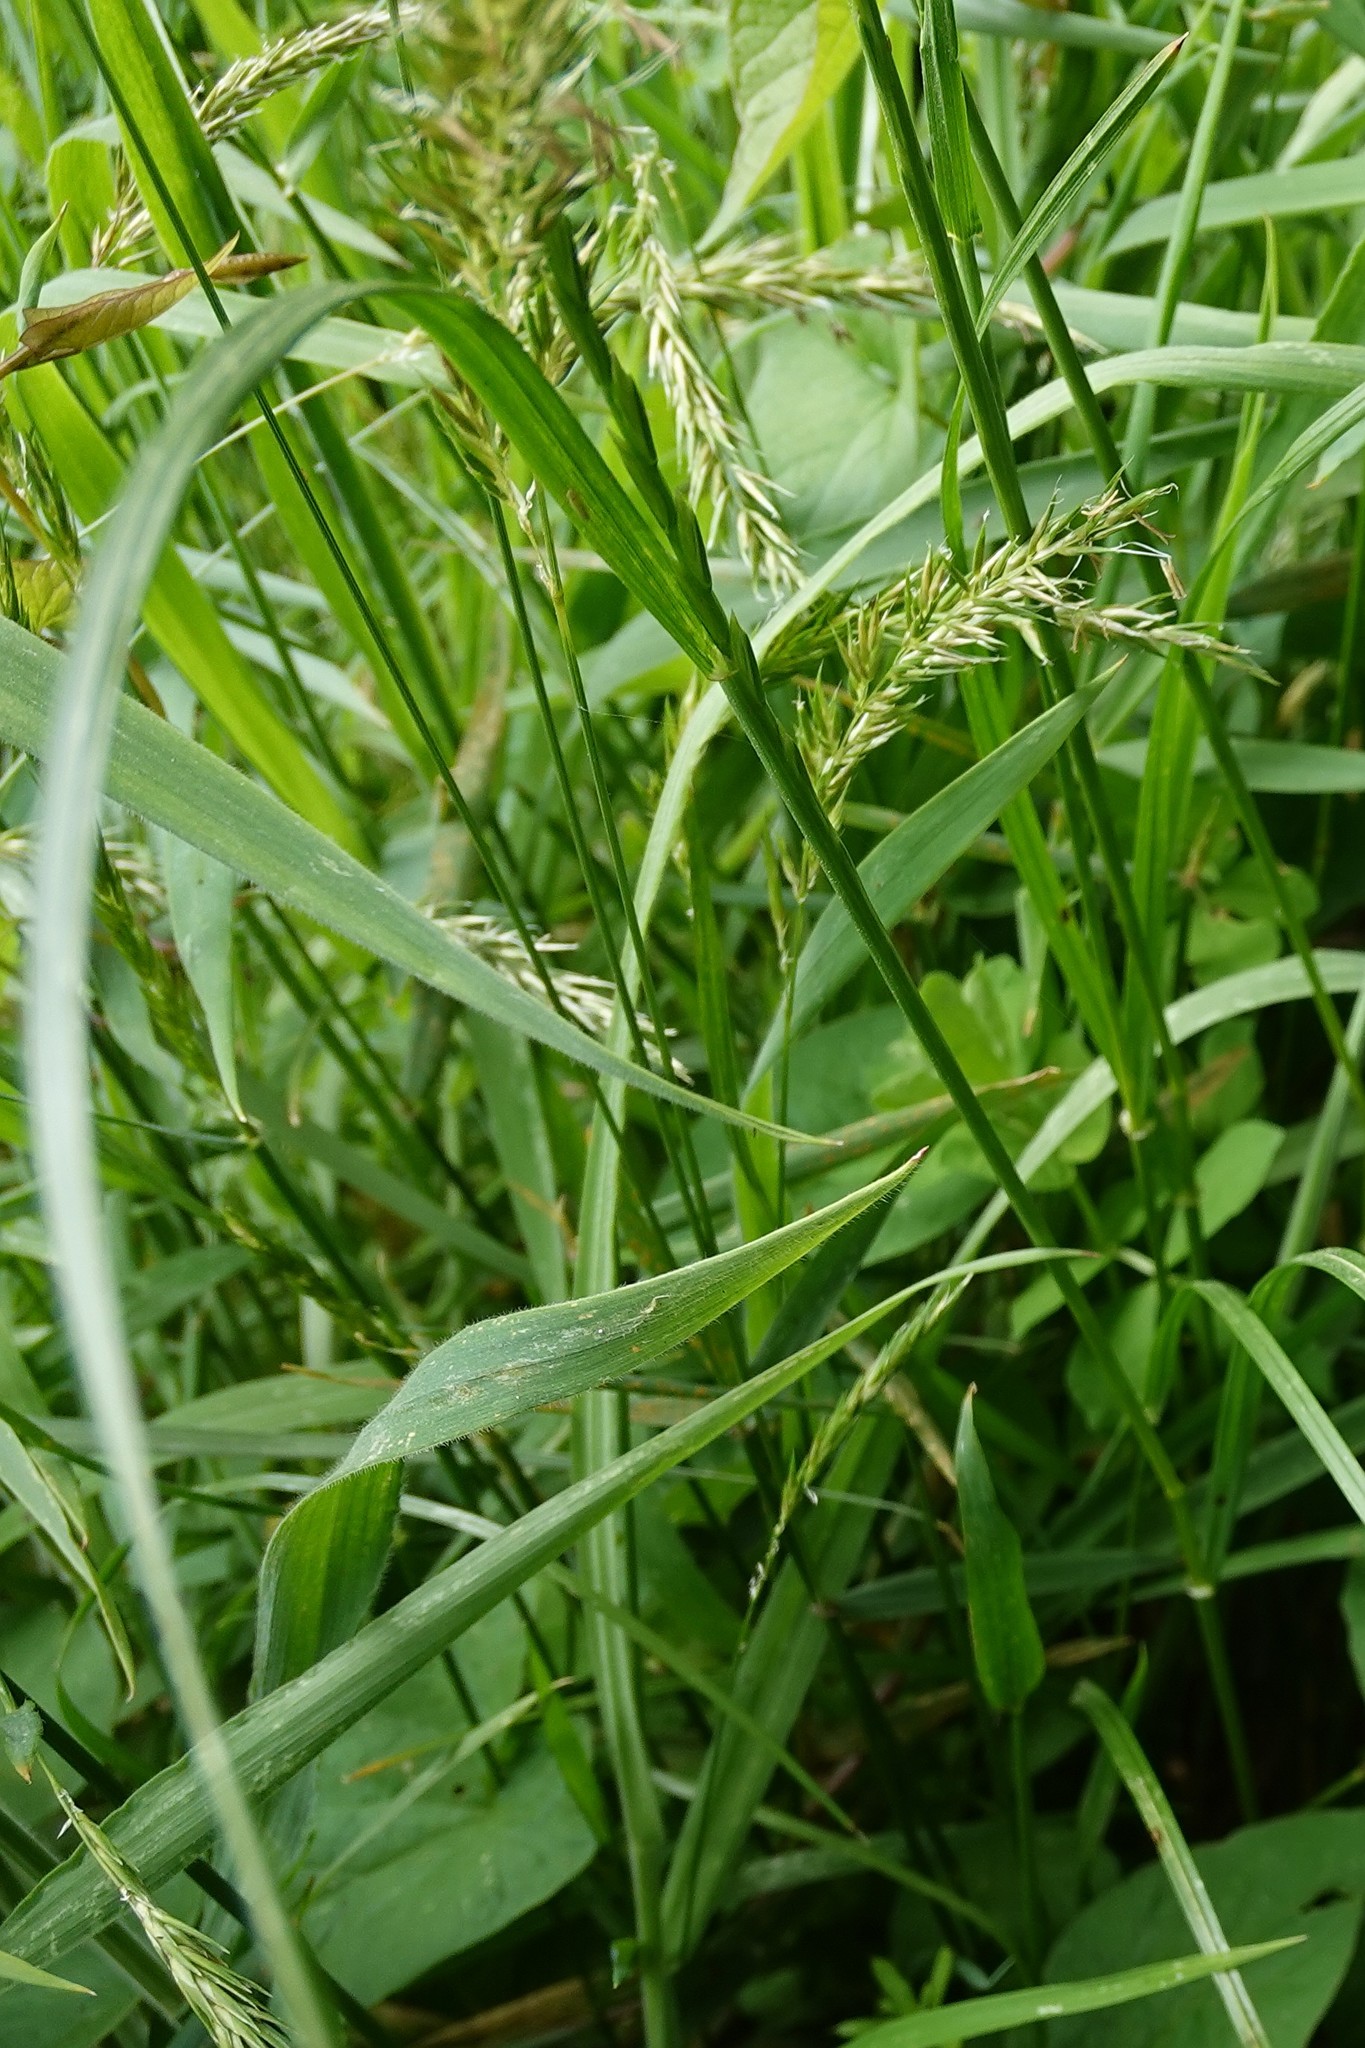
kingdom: Plantae
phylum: Tracheophyta
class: Liliopsida
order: Poales
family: Poaceae
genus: Anthoxanthum
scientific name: Anthoxanthum odoratum
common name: Sweet vernalgrass
